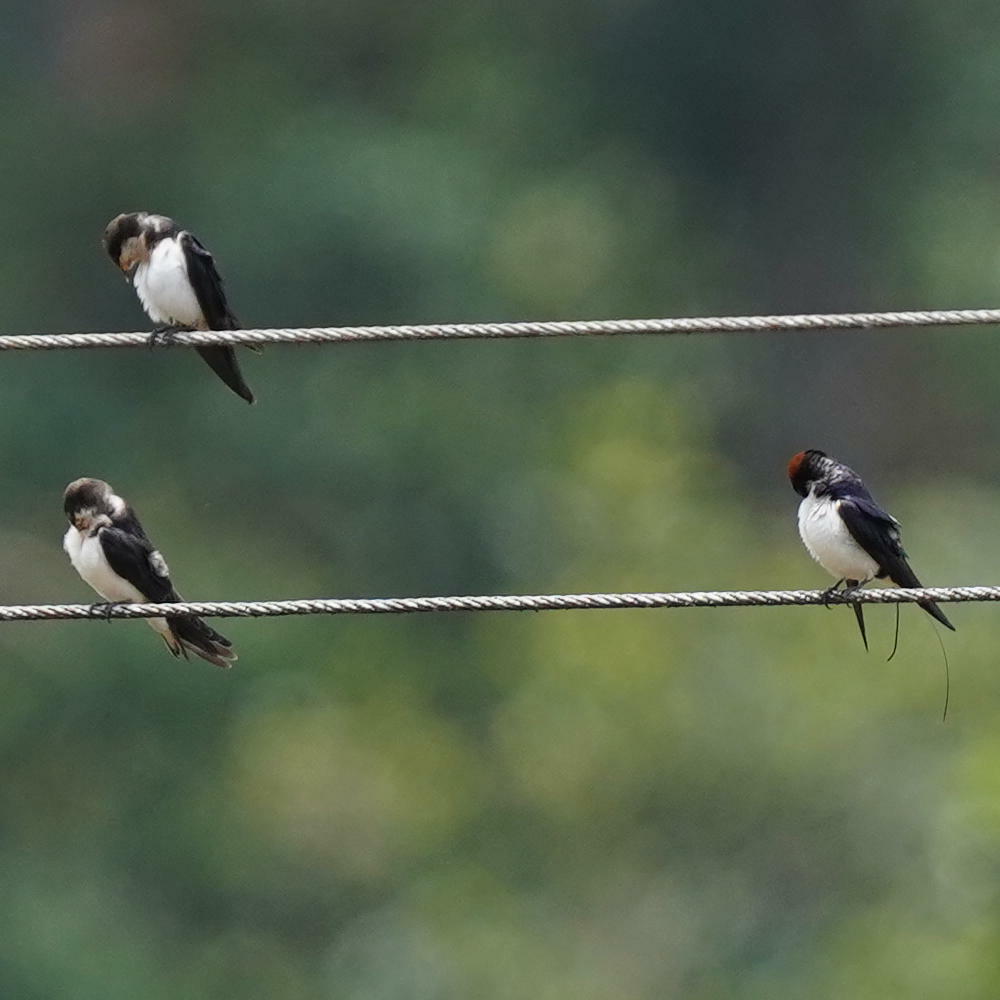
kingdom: Animalia
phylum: Chordata
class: Aves
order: Passeriformes
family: Hirundinidae
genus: Hirundo
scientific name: Hirundo smithii
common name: Wire-tailed swallow
